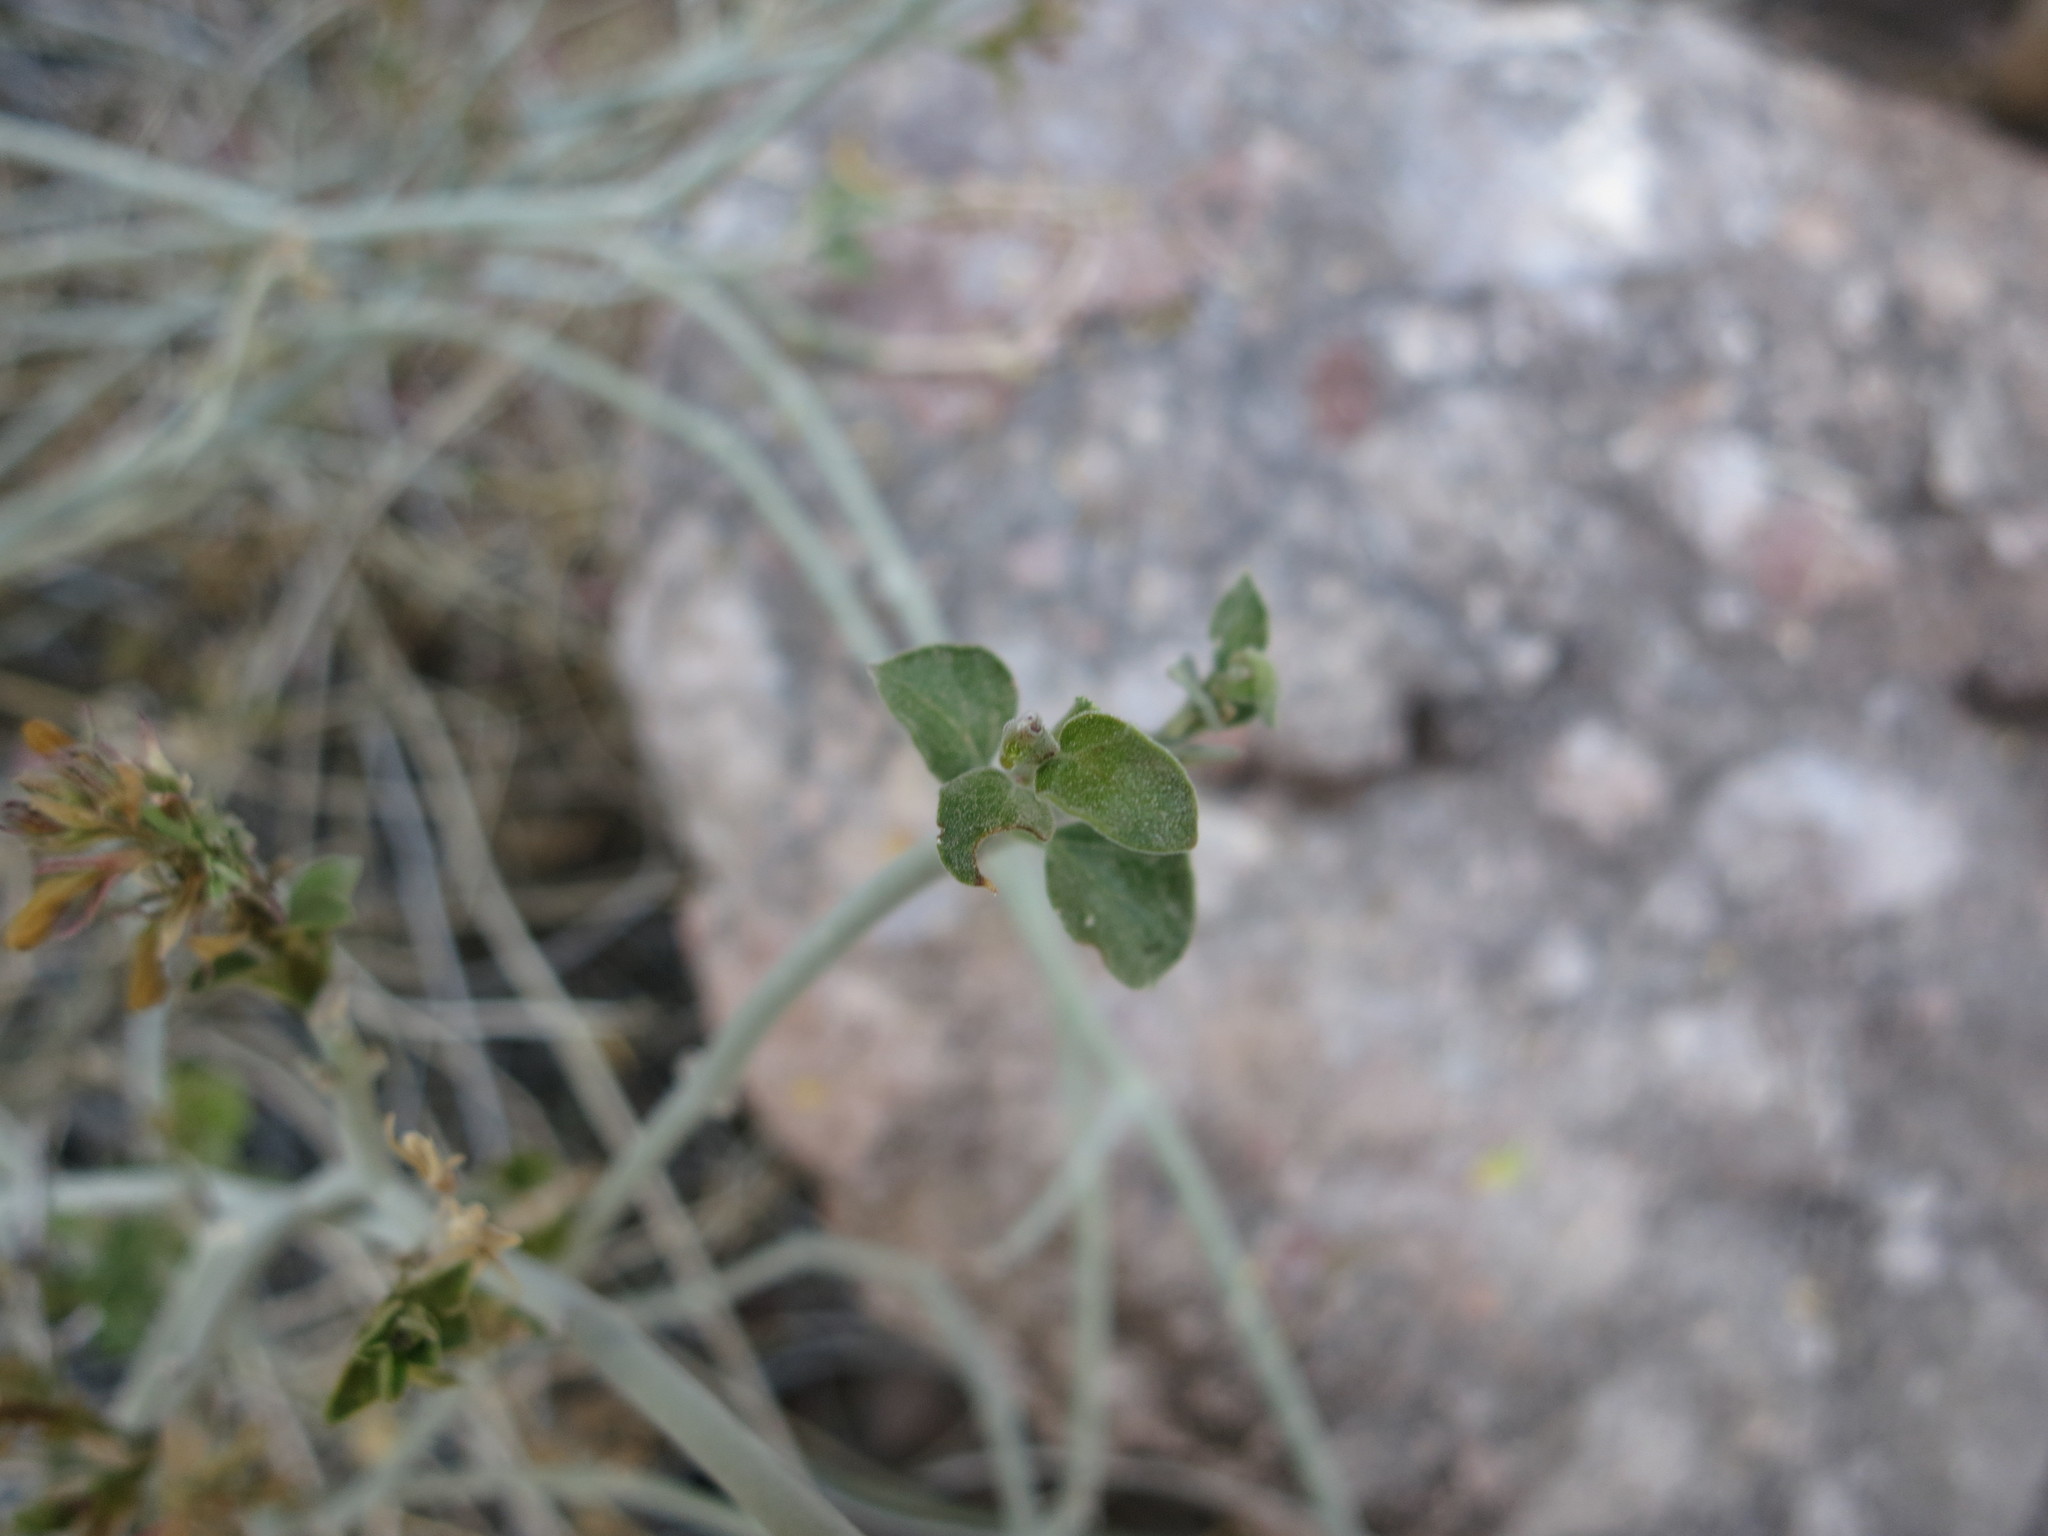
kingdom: Plantae
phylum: Tracheophyta
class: Magnoliopsida
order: Lamiales
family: Acanthaceae
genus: Justicia
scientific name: Justicia californica
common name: Chuparosa-honeysuckle
